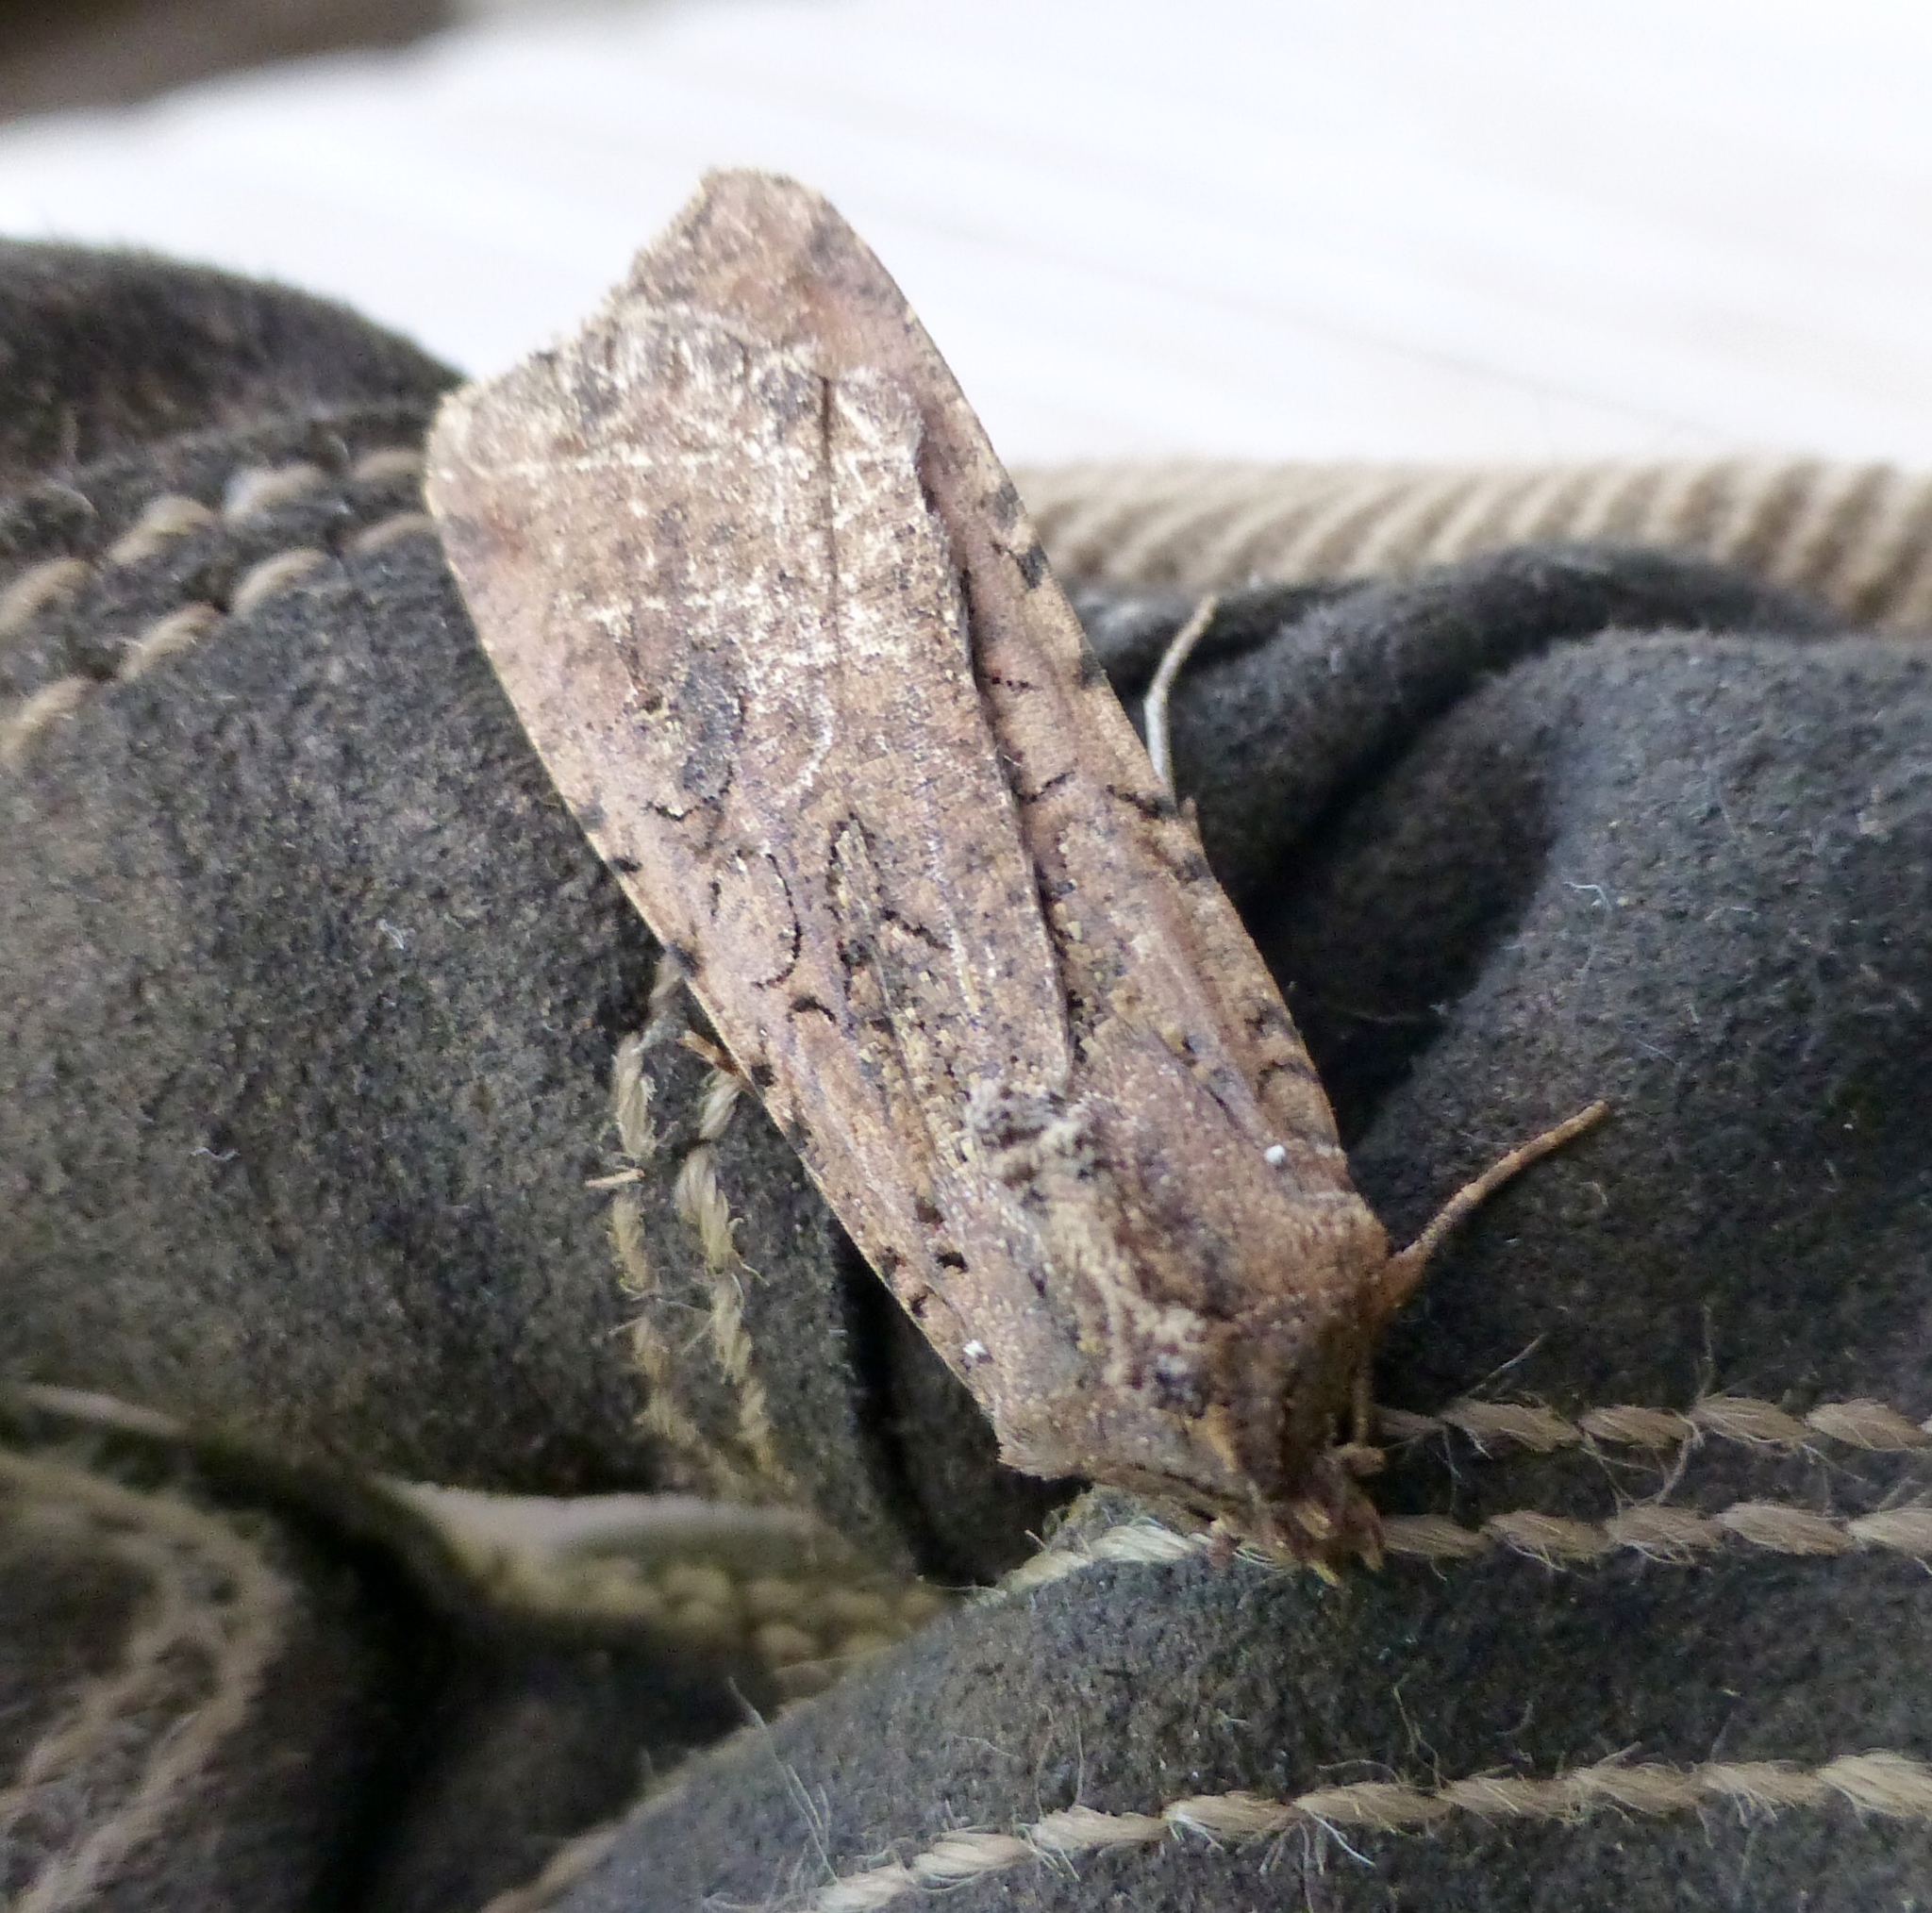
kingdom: Animalia
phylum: Arthropoda
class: Insecta
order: Lepidoptera
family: Noctuidae
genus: Peridroma
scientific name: Peridroma saucia
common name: Pearly underwing
